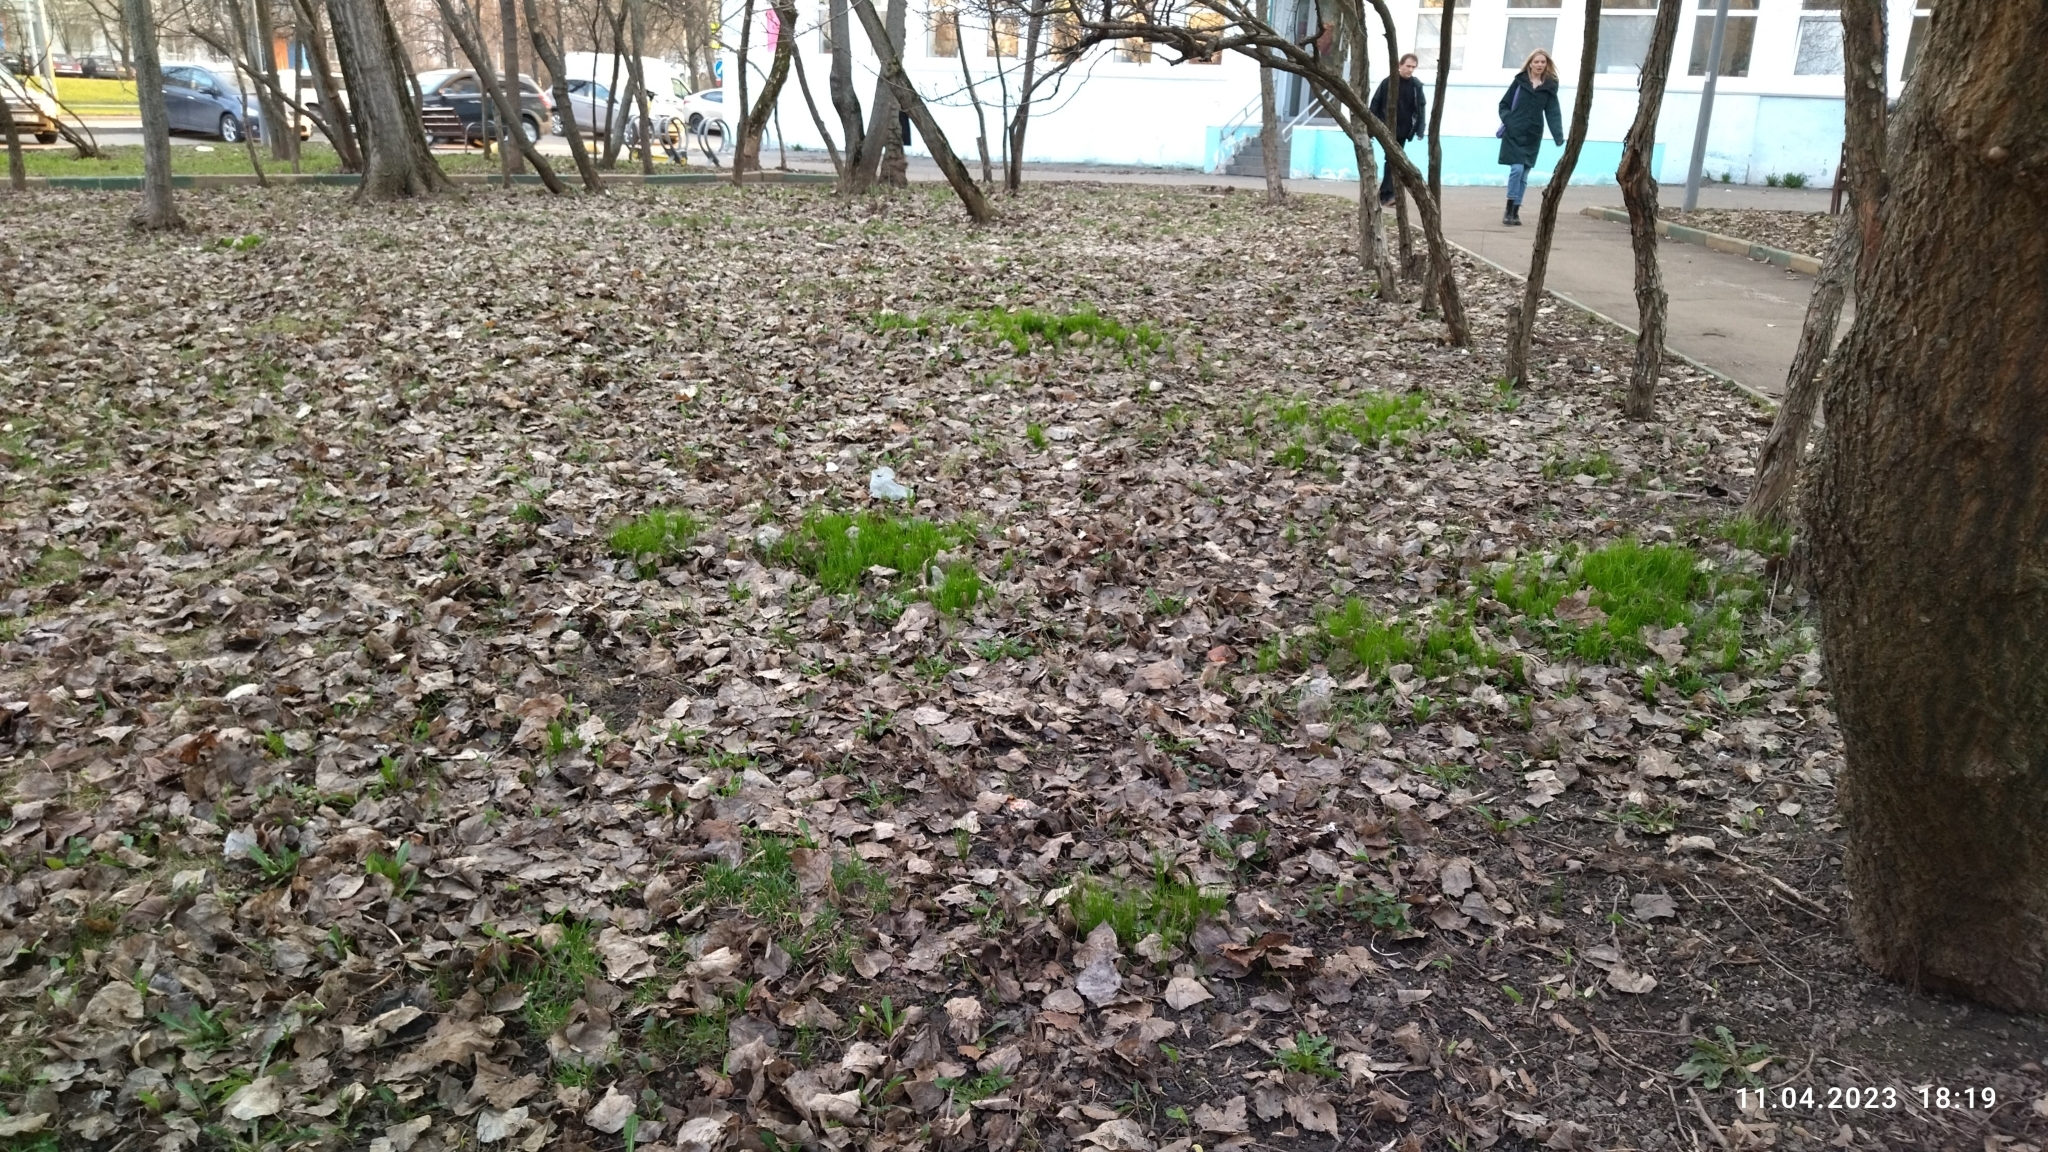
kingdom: Plantae
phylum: Tracheophyta
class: Liliopsida
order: Liliales
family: Liliaceae
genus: Gagea
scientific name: Gagea minima
